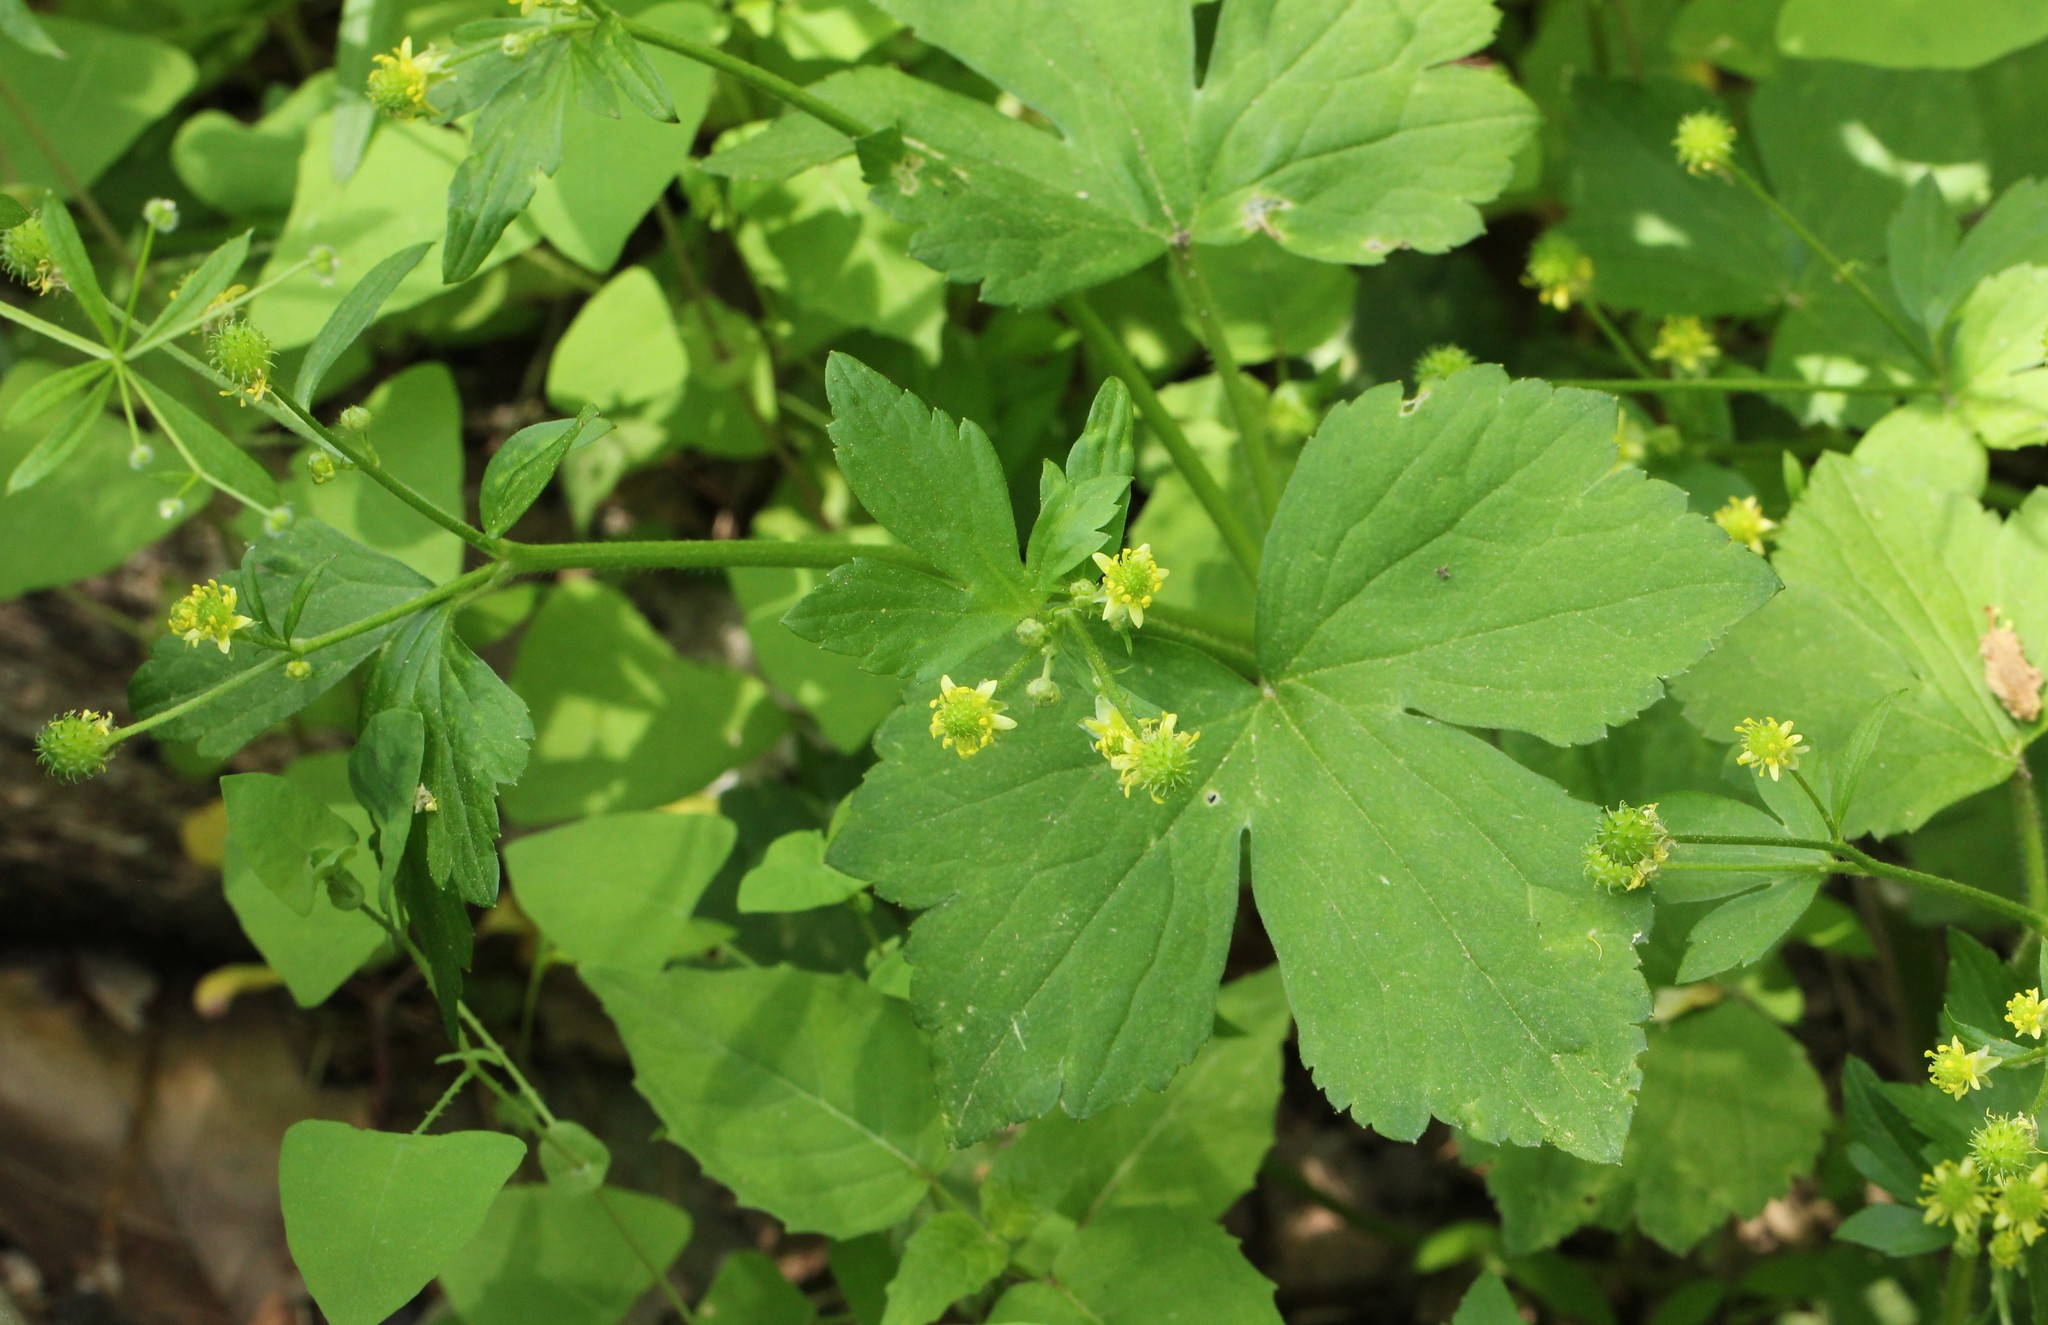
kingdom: Plantae
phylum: Tracheophyta
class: Magnoliopsida
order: Ranunculales
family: Ranunculaceae
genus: Ranunculus
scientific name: Ranunculus recurvatus
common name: Blisterwort
